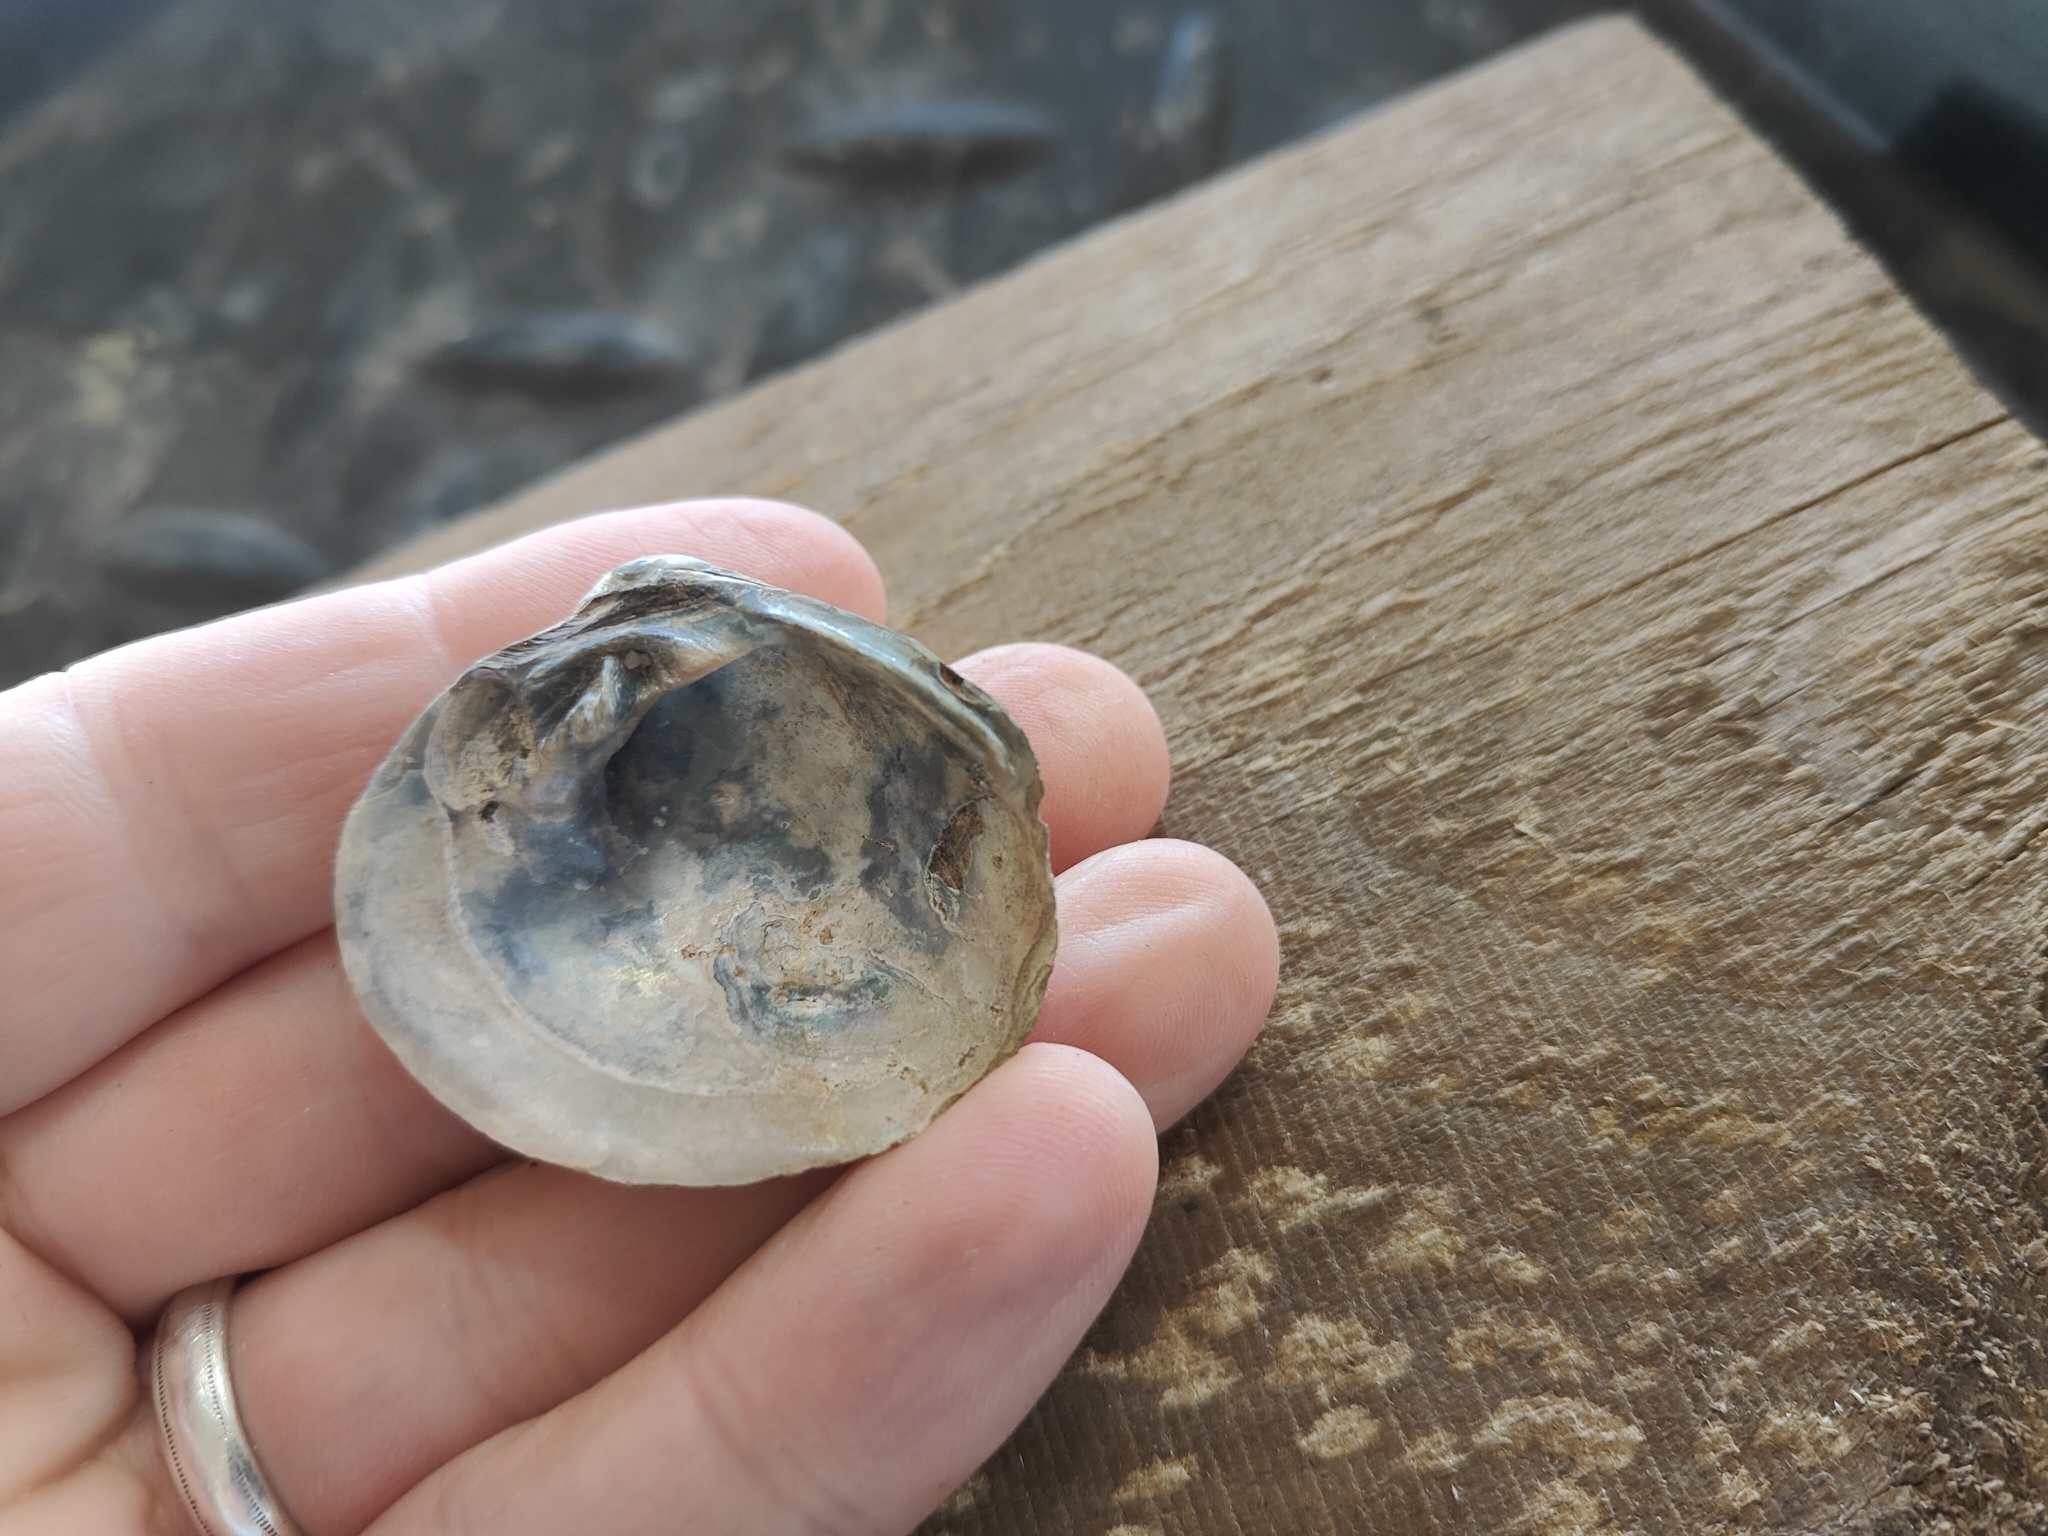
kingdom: Animalia
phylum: Mollusca
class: Bivalvia
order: Unionida
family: Unionidae
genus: Cyclonaias
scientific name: Cyclonaias pustulosa
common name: Pimpleback
